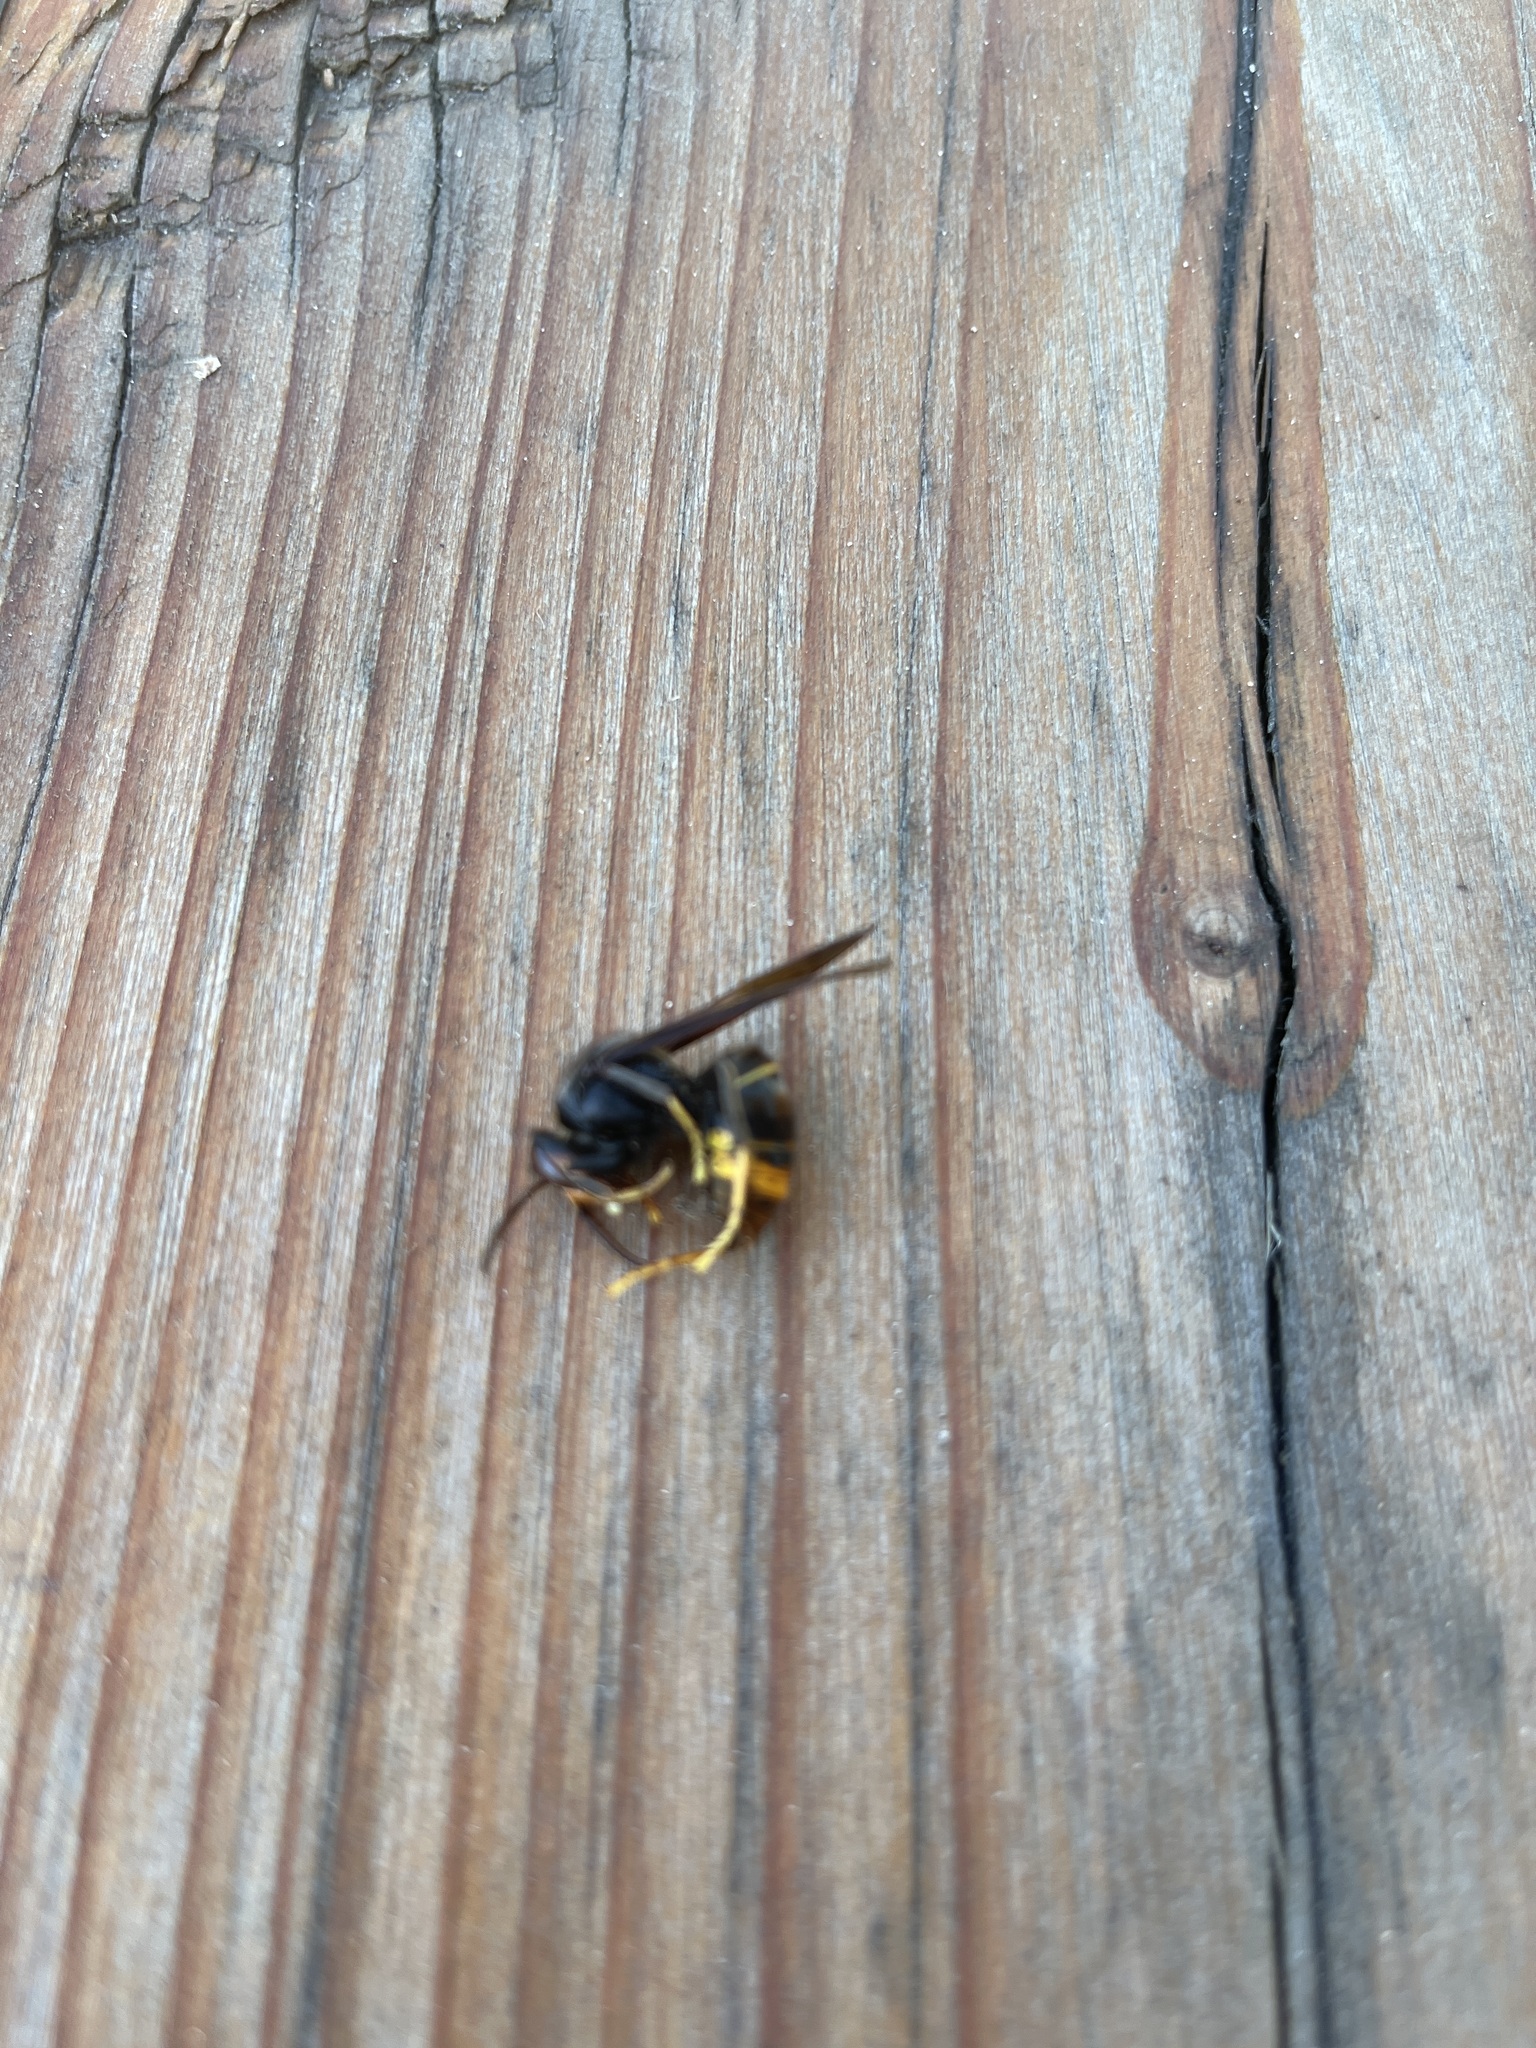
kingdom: Animalia
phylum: Arthropoda
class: Insecta
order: Hymenoptera
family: Vespidae
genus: Vespa
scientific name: Vespa velutina
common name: Asian hornet
